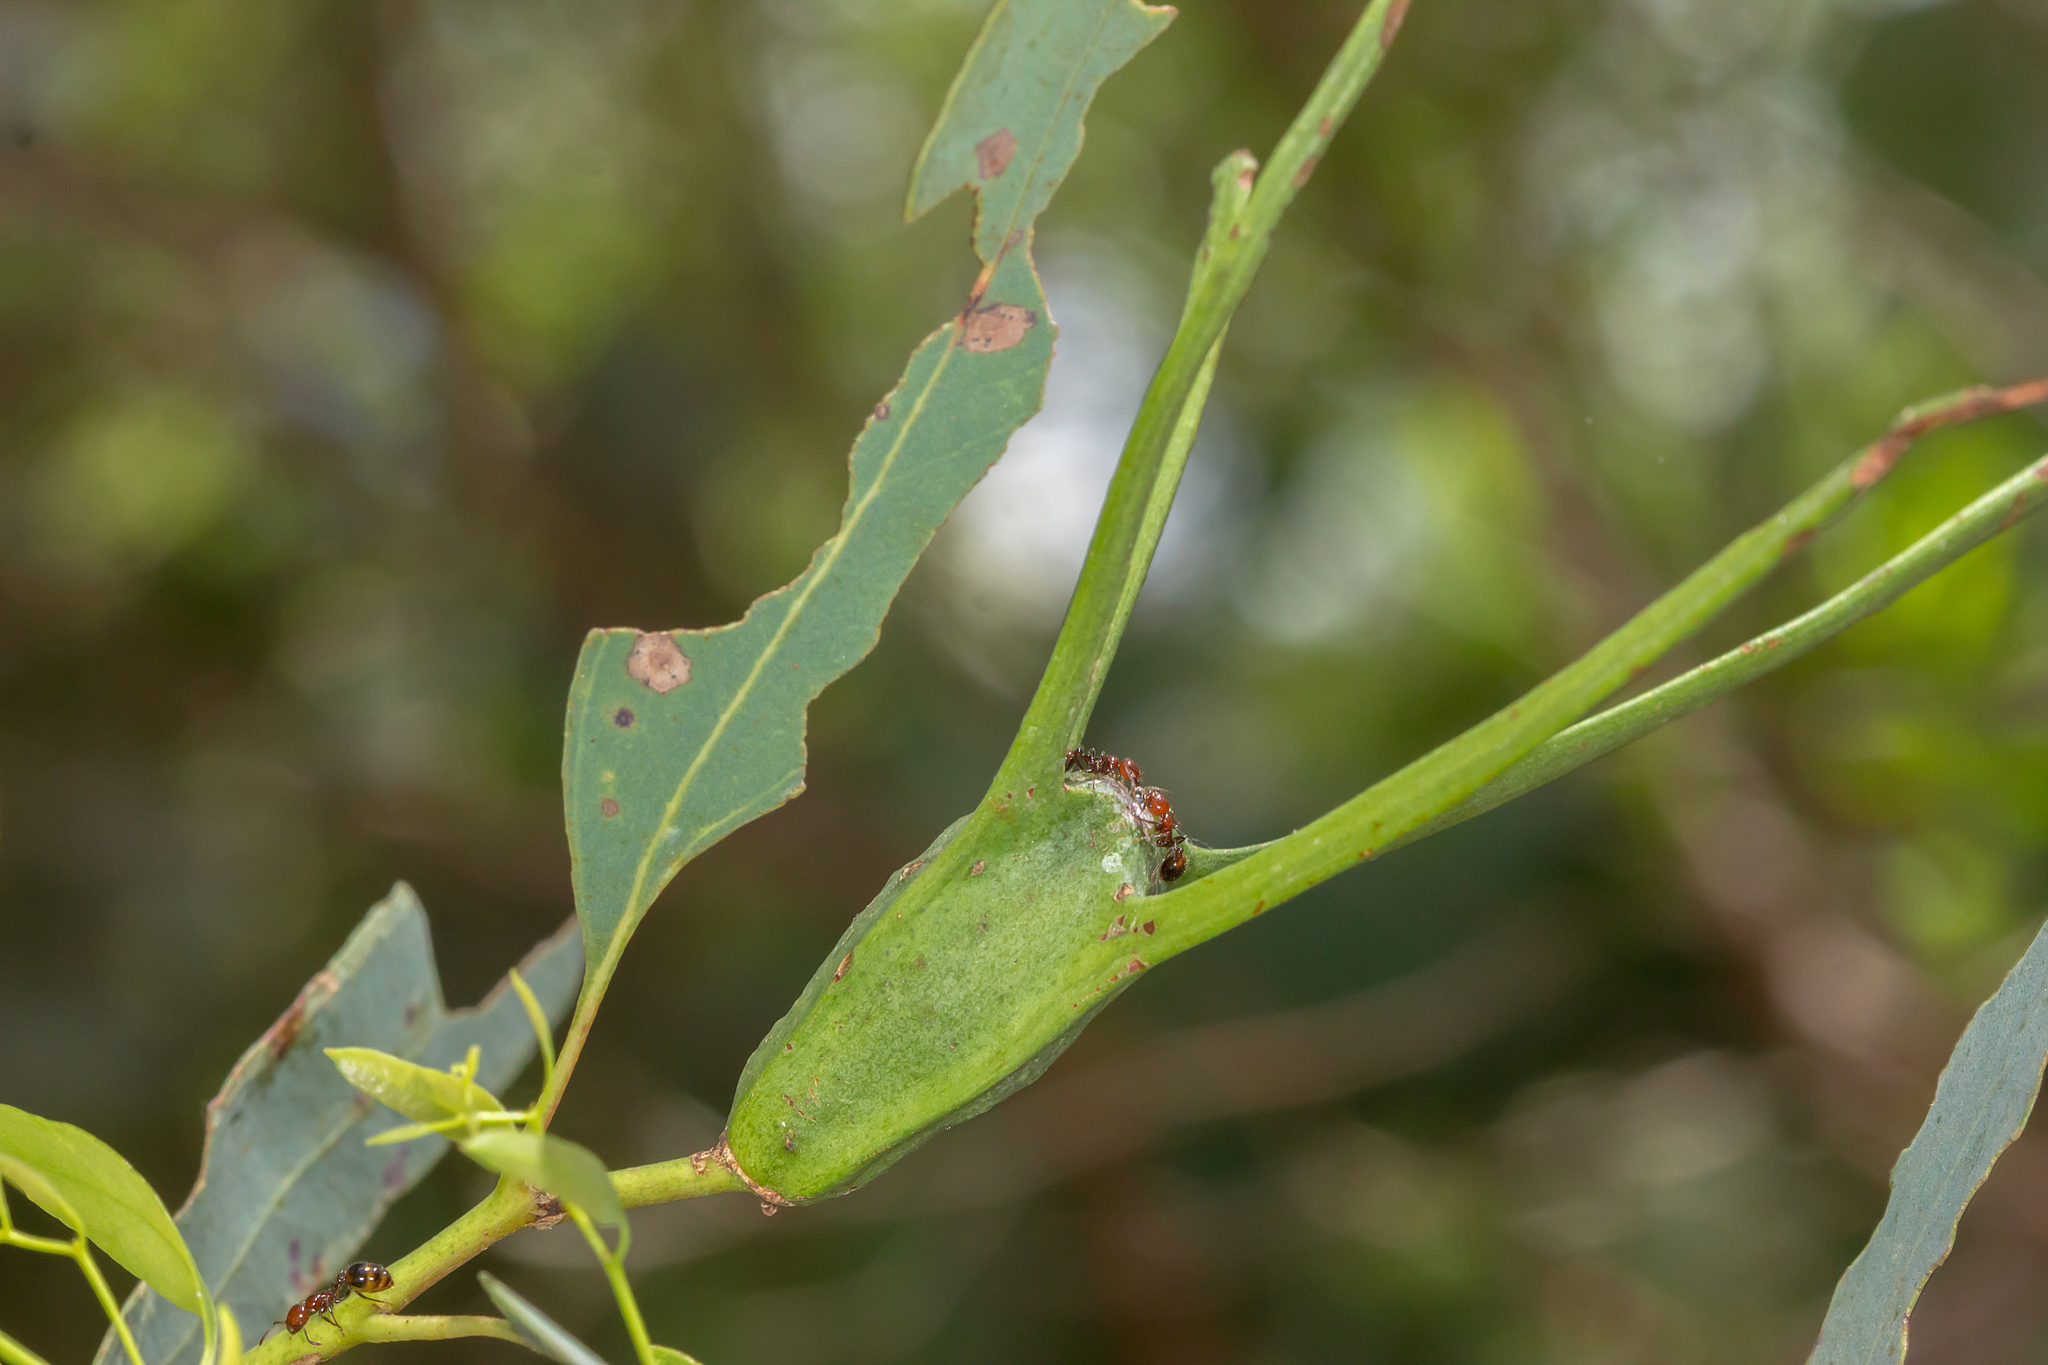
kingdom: Animalia
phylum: Arthropoda
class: Insecta
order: Hymenoptera
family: Formicidae
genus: Chelaner
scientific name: Chelaner
